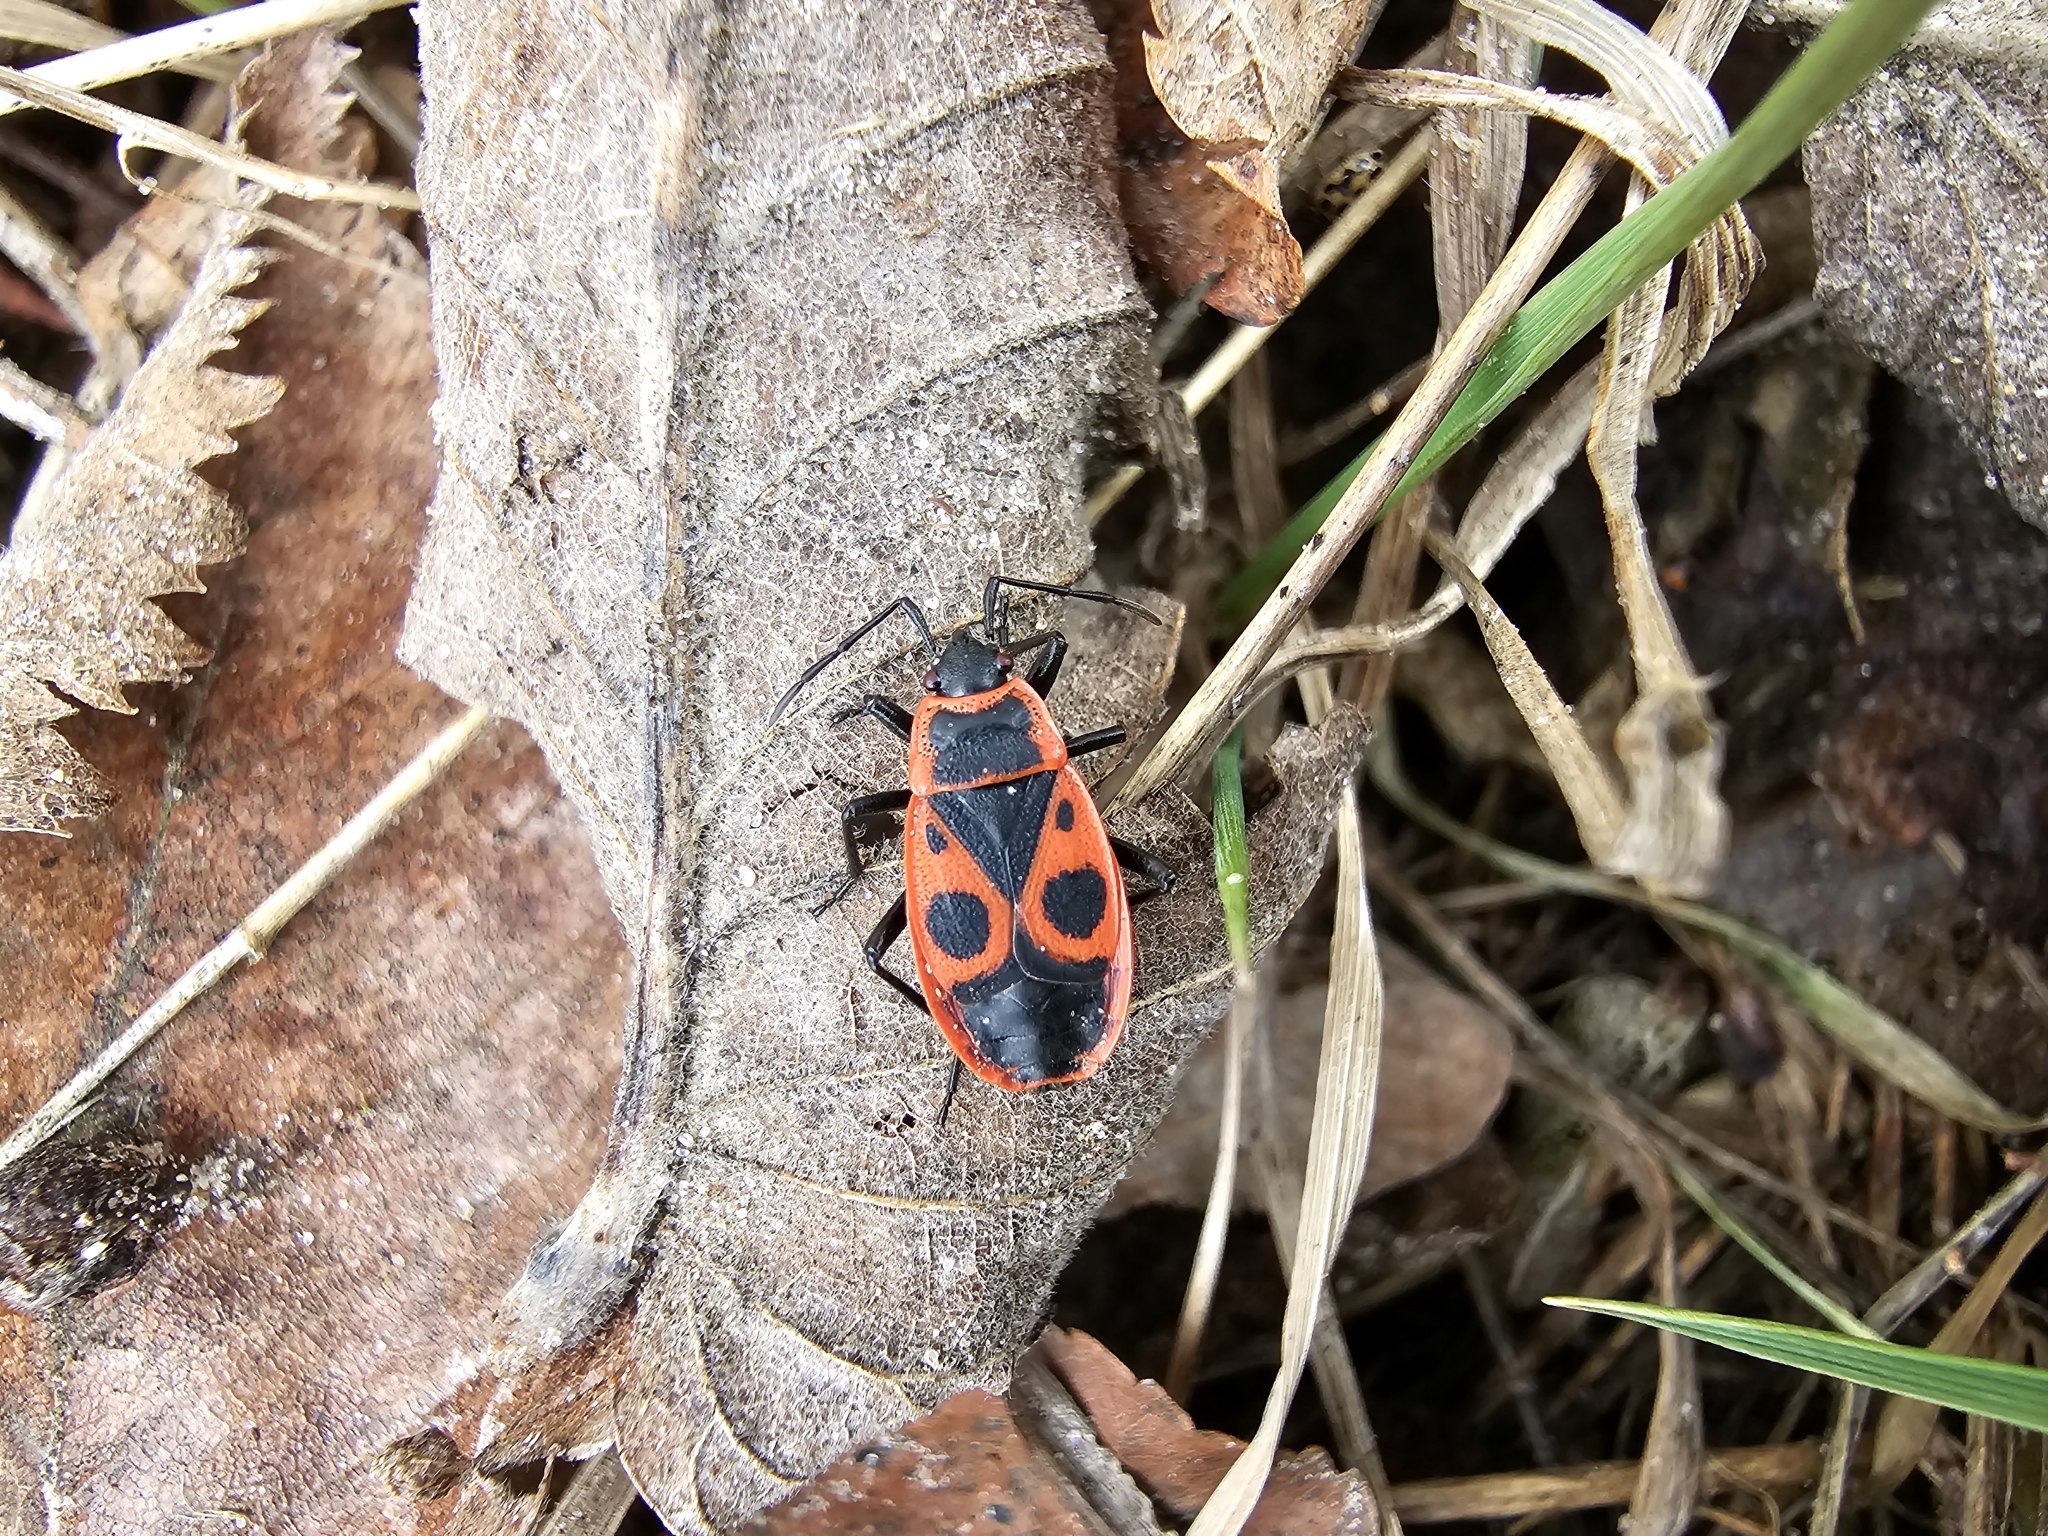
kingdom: Animalia
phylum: Arthropoda
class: Insecta
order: Hemiptera
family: Pyrrhocoridae
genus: Pyrrhocoris
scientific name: Pyrrhocoris apterus
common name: Firebug
